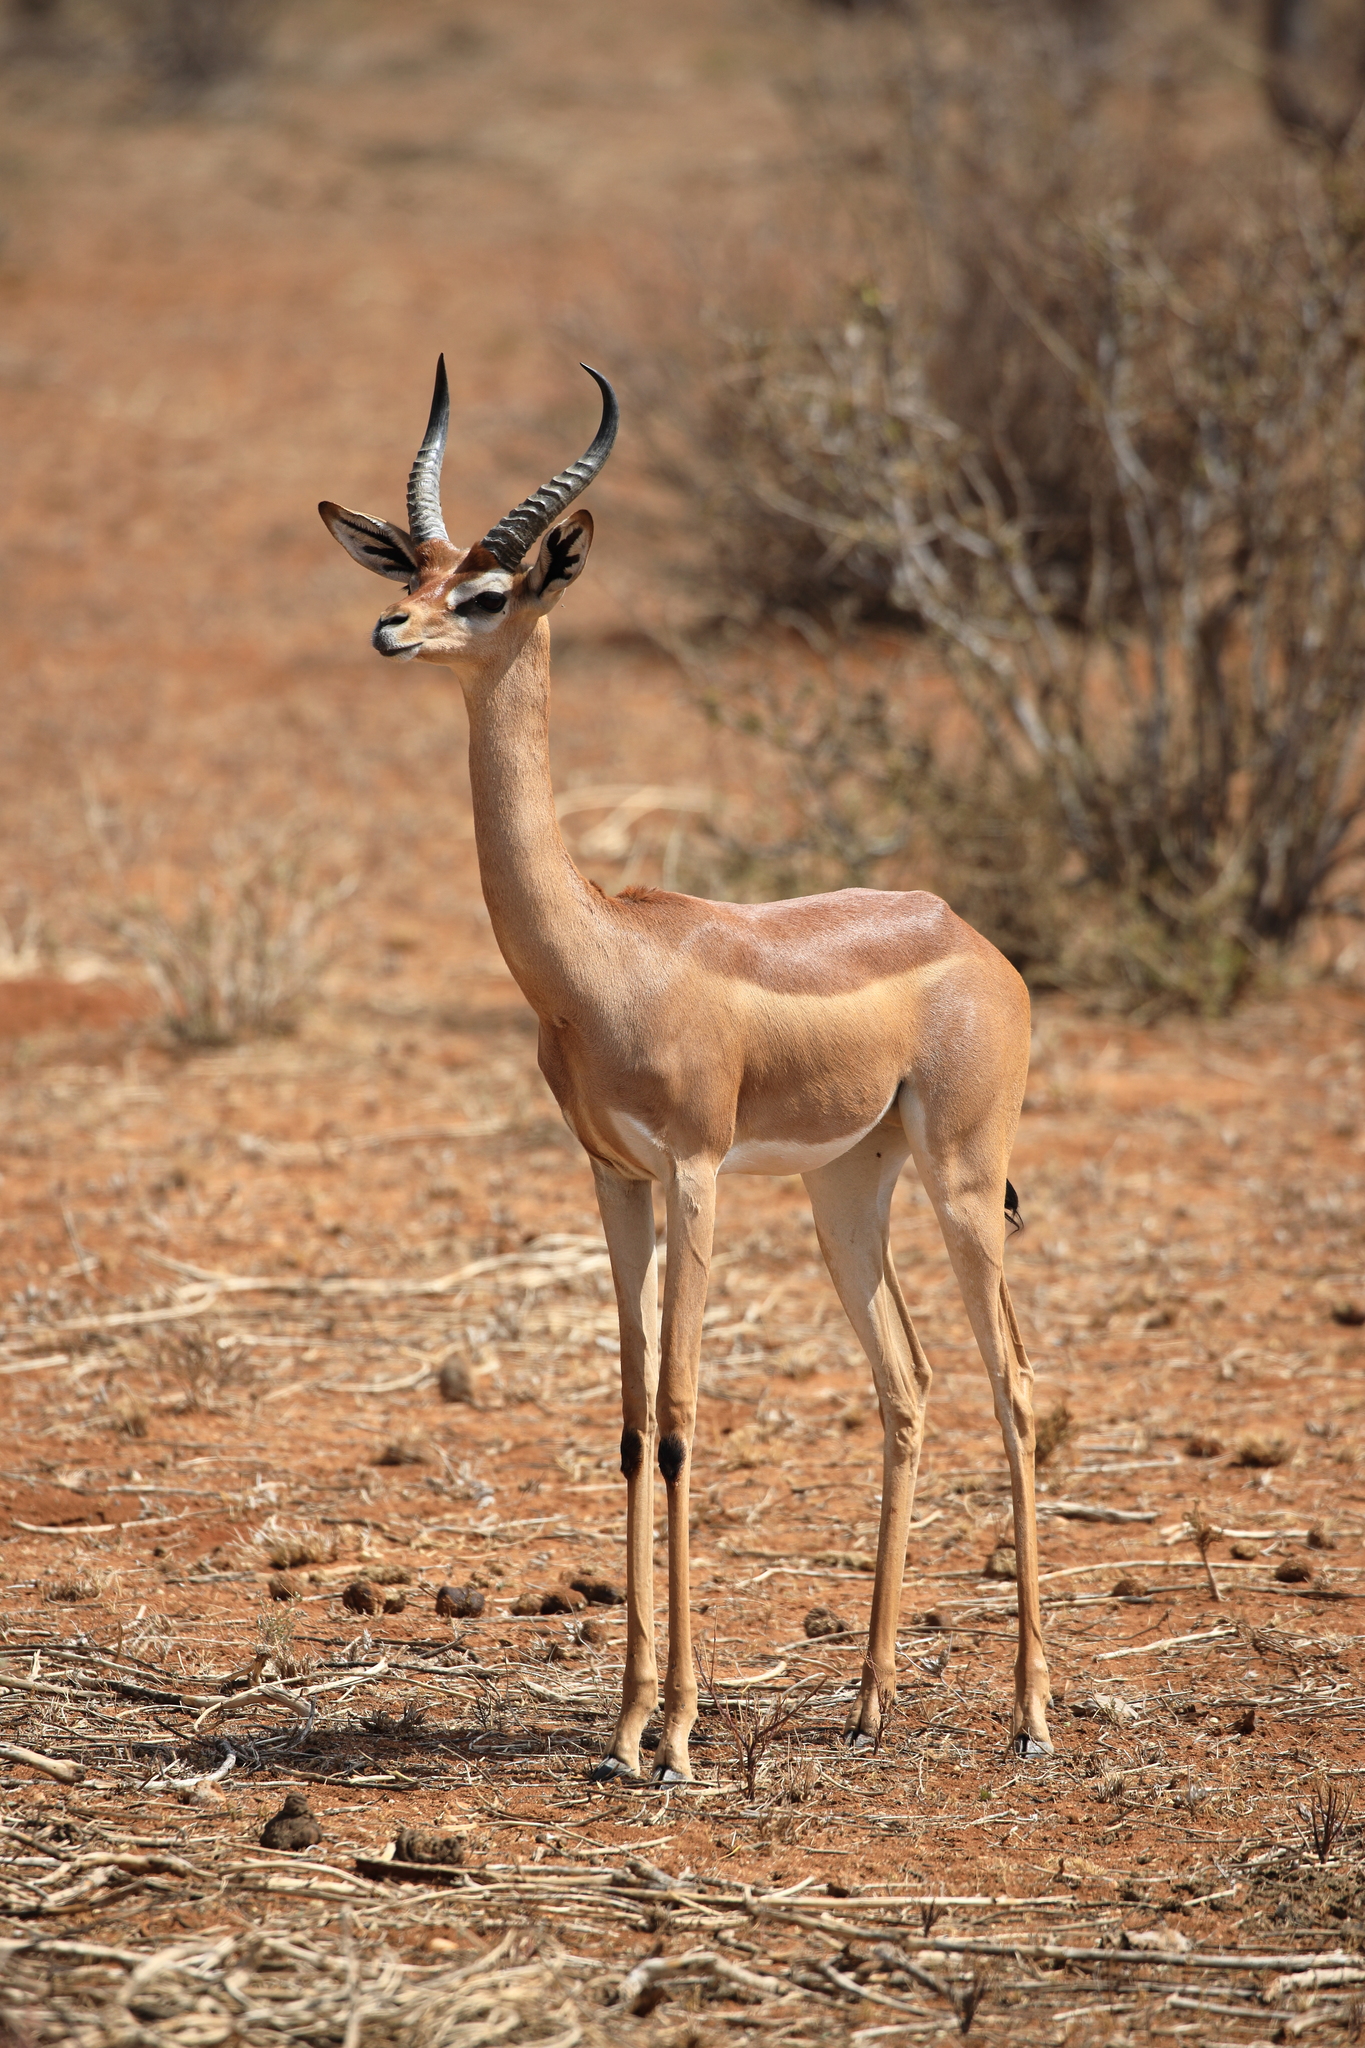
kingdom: Animalia
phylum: Chordata
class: Mammalia
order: Artiodactyla
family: Bovidae
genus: Litocranius
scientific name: Litocranius walleri
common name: Gerenuk
